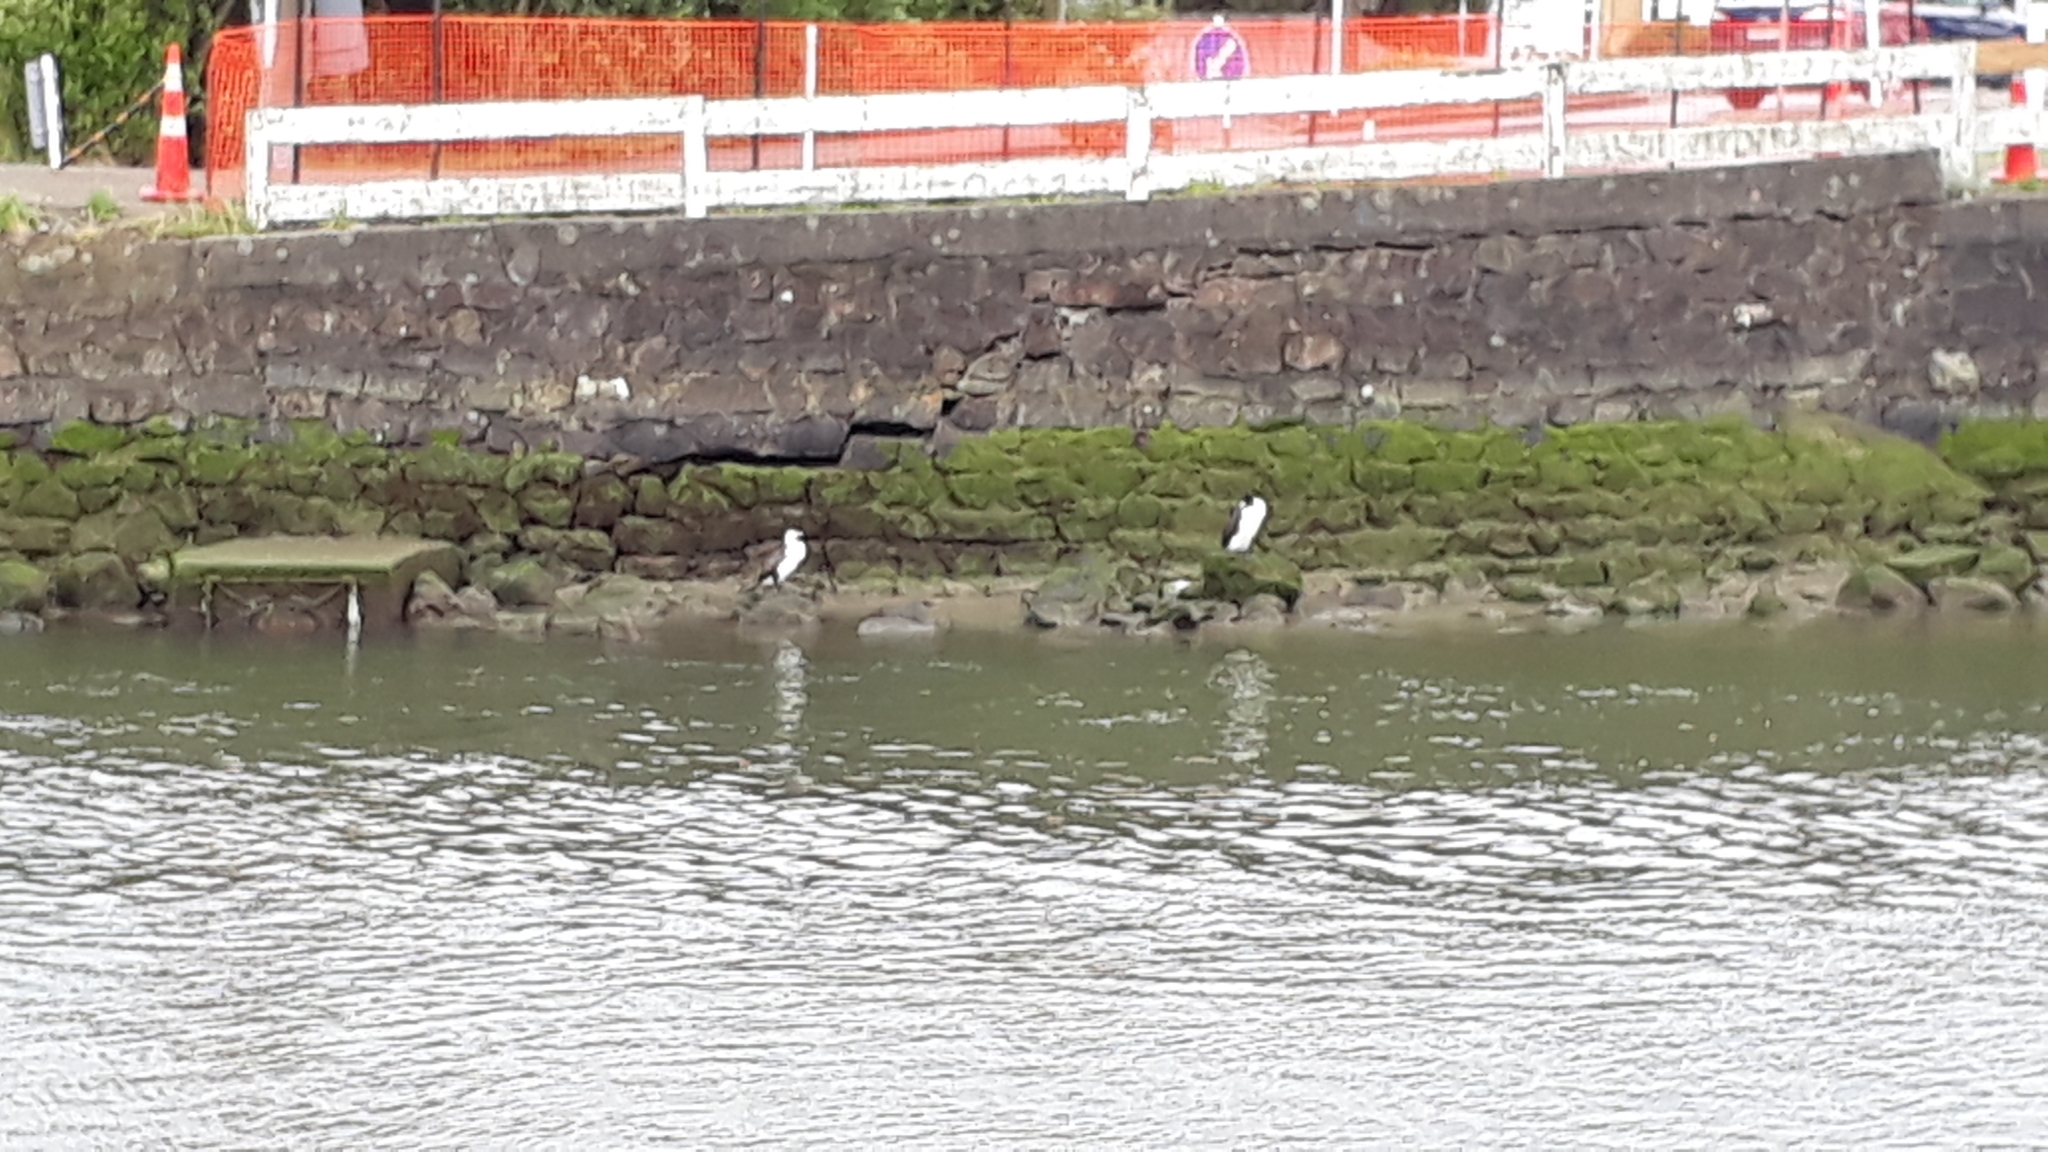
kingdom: Animalia
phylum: Chordata
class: Aves
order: Suliformes
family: Phalacrocoracidae
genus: Phalacrocorax
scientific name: Phalacrocorax varius
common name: Pied cormorant
